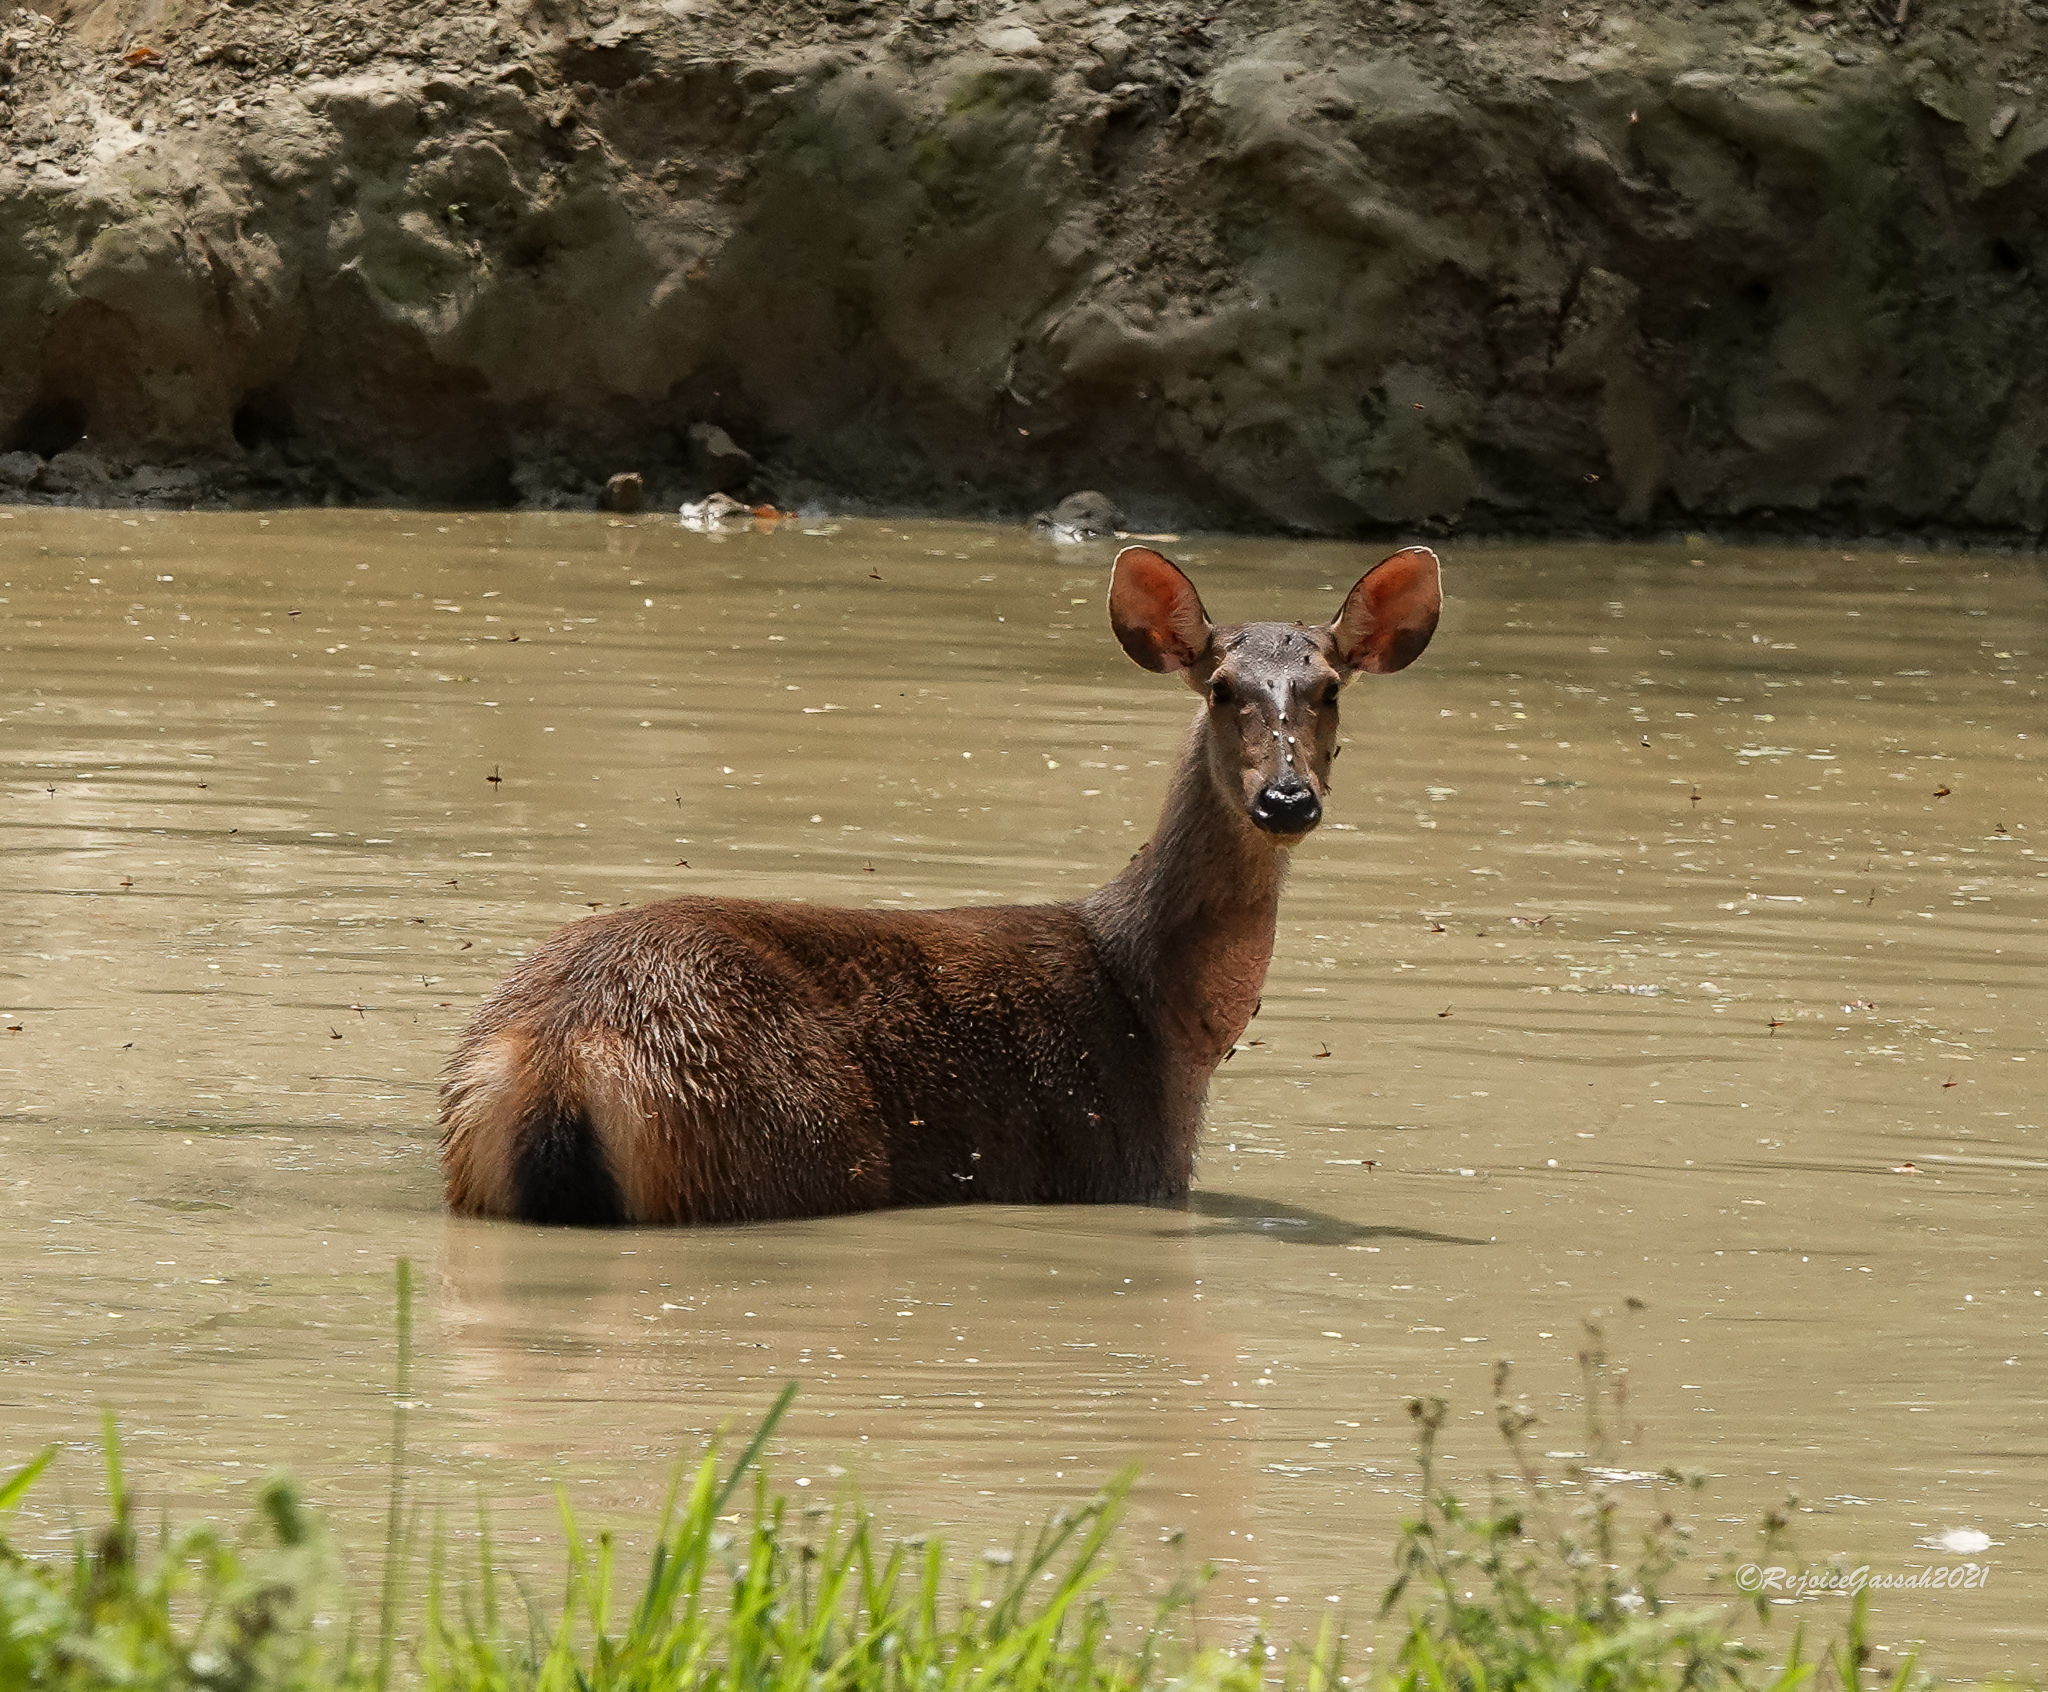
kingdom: Animalia
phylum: Chordata
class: Mammalia
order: Artiodactyla
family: Cervidae
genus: Rusa
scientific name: Rusa unicolor
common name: Sambar
